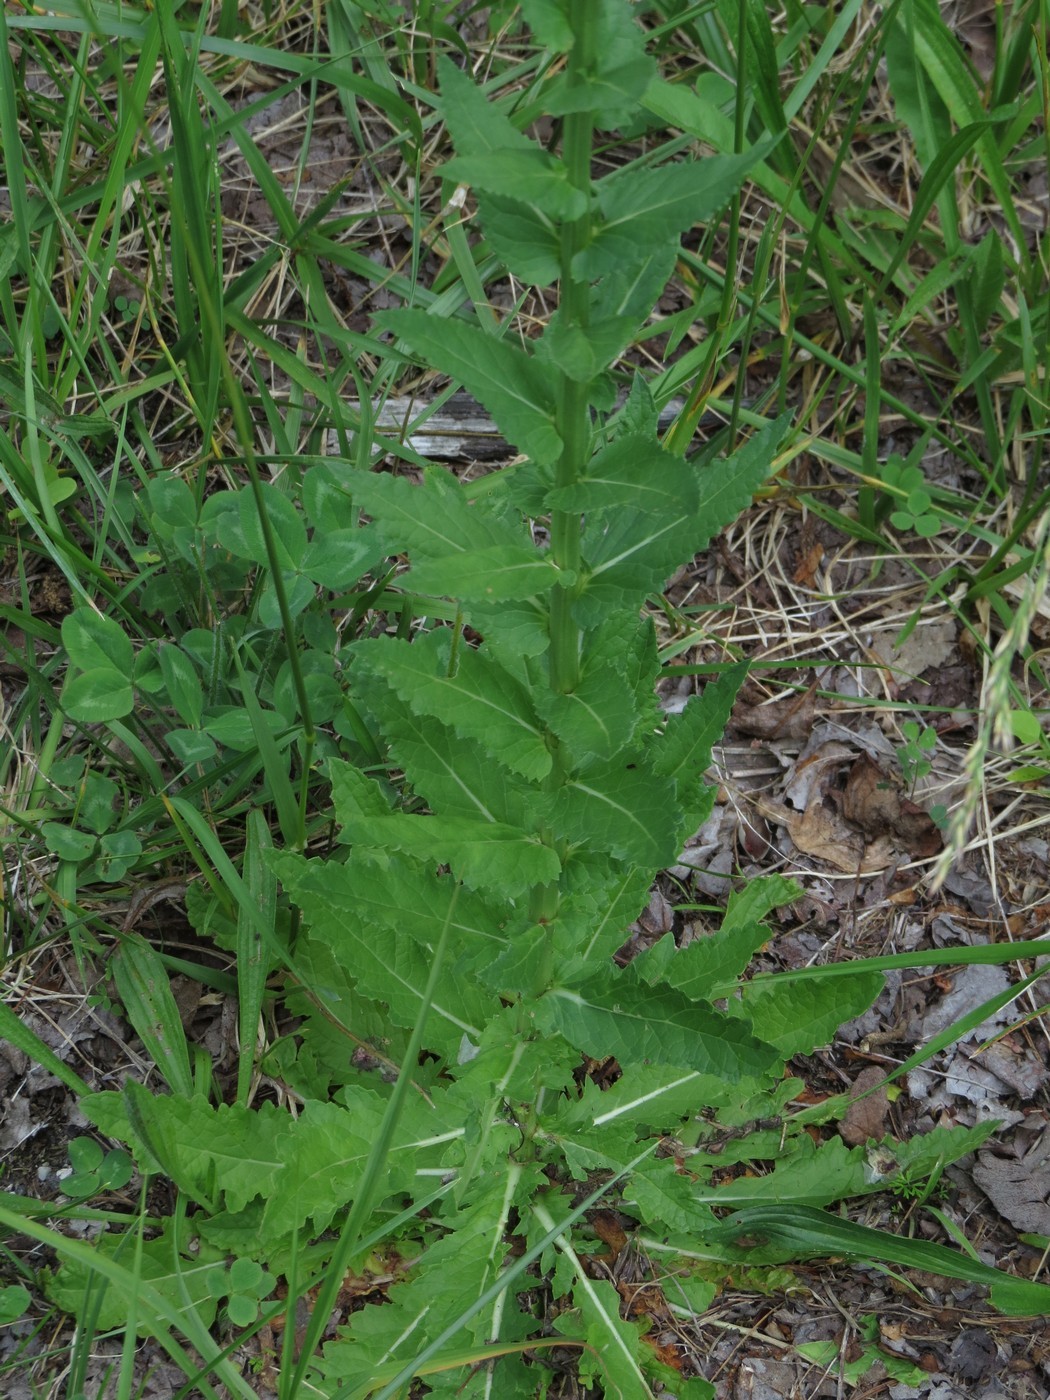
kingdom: Plantae
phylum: Tracheophyta
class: Magnoliopsida
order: Lamiales
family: Scrophulariaceae
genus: Verbascum
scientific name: Verbascum blattaria
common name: Moth mullein
